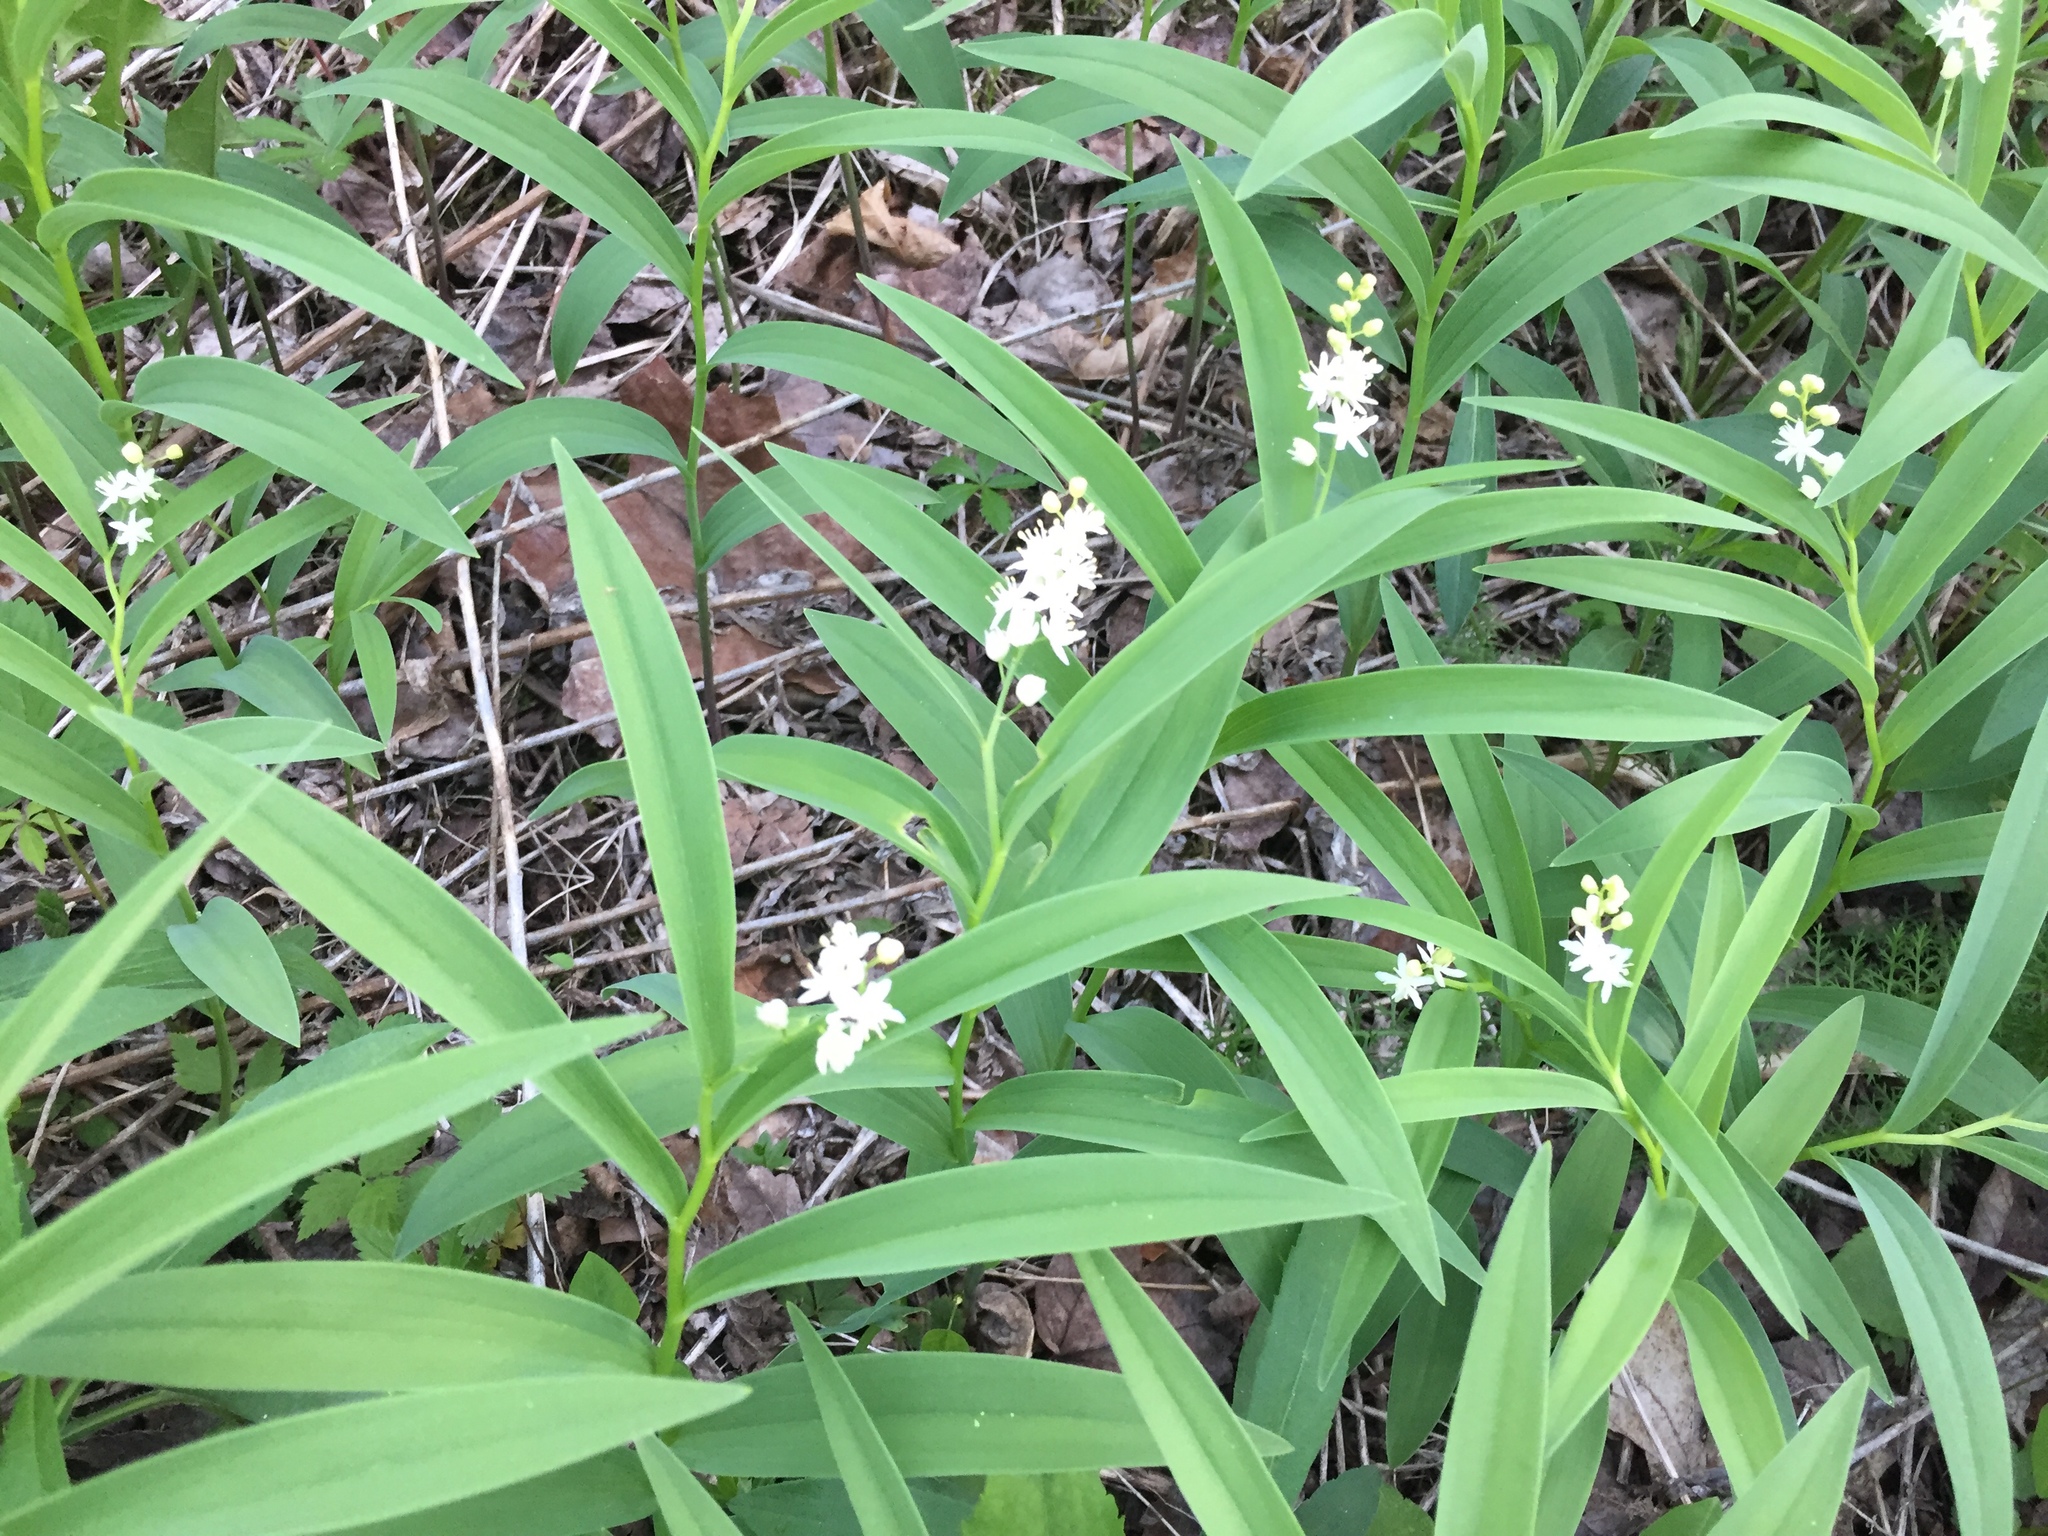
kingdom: Plantae
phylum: Tracheophyta
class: Liliopsida
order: Asparagales
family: Asparagaceae
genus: Maianthemum
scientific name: Maianthemum stellatum
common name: Little false solomon's seal
